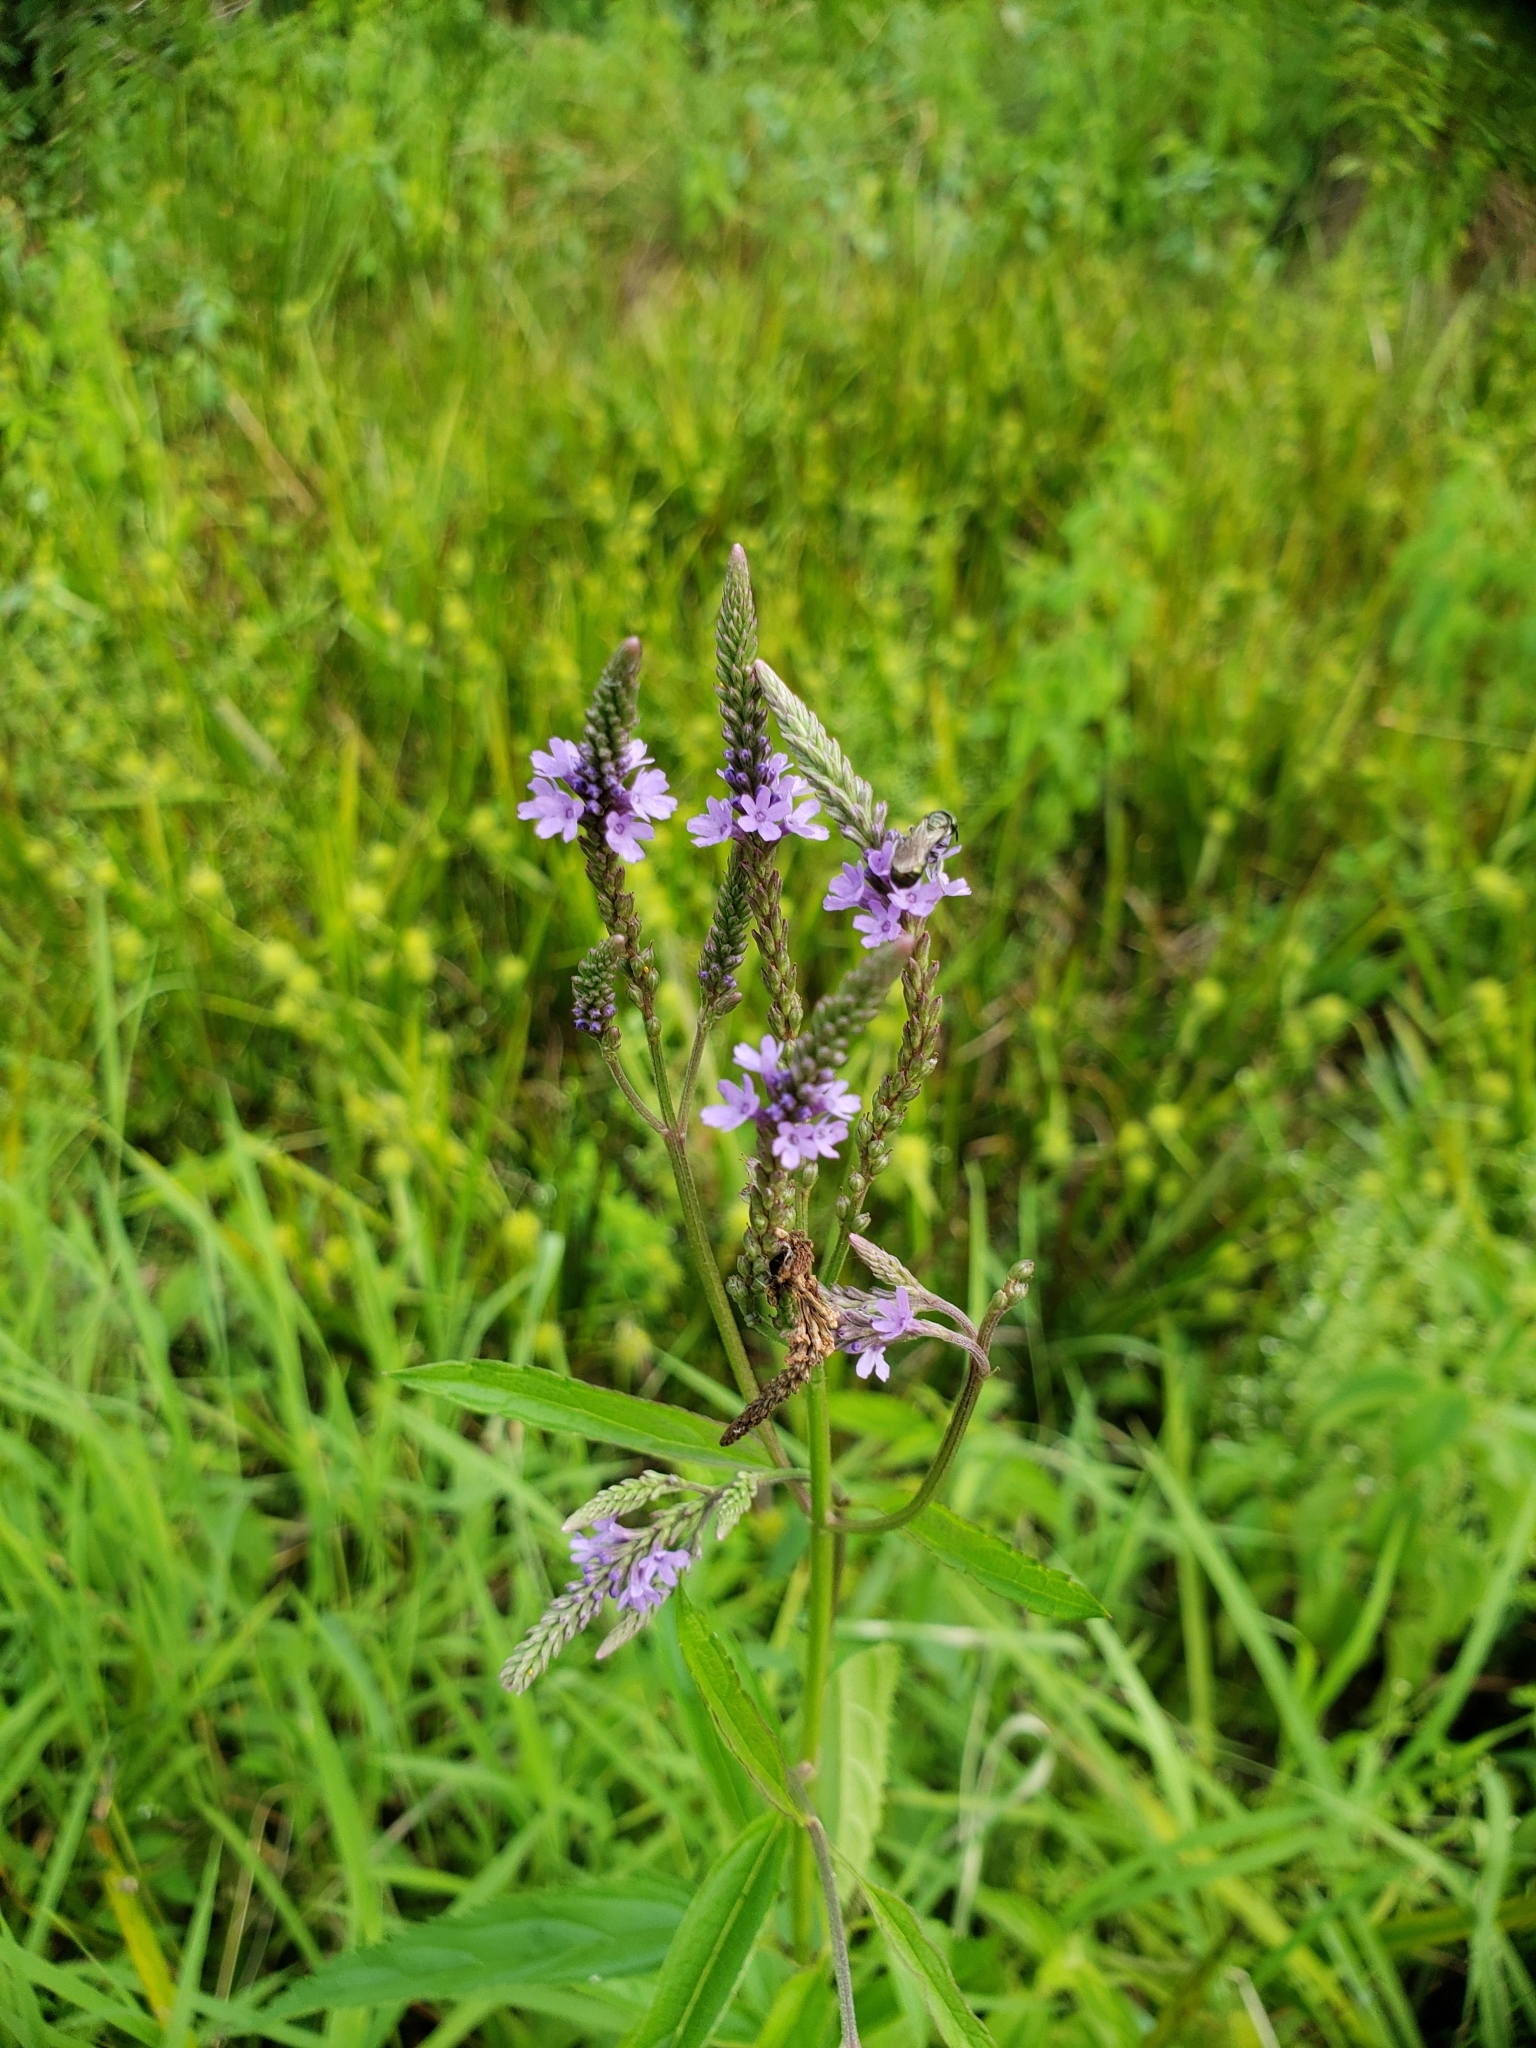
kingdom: Plantae
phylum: Tracheophyta
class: Magnoliopsida
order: Lamiales
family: Verbenaceae
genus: Verbena
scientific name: Verbena hastata
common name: American blue vervain
